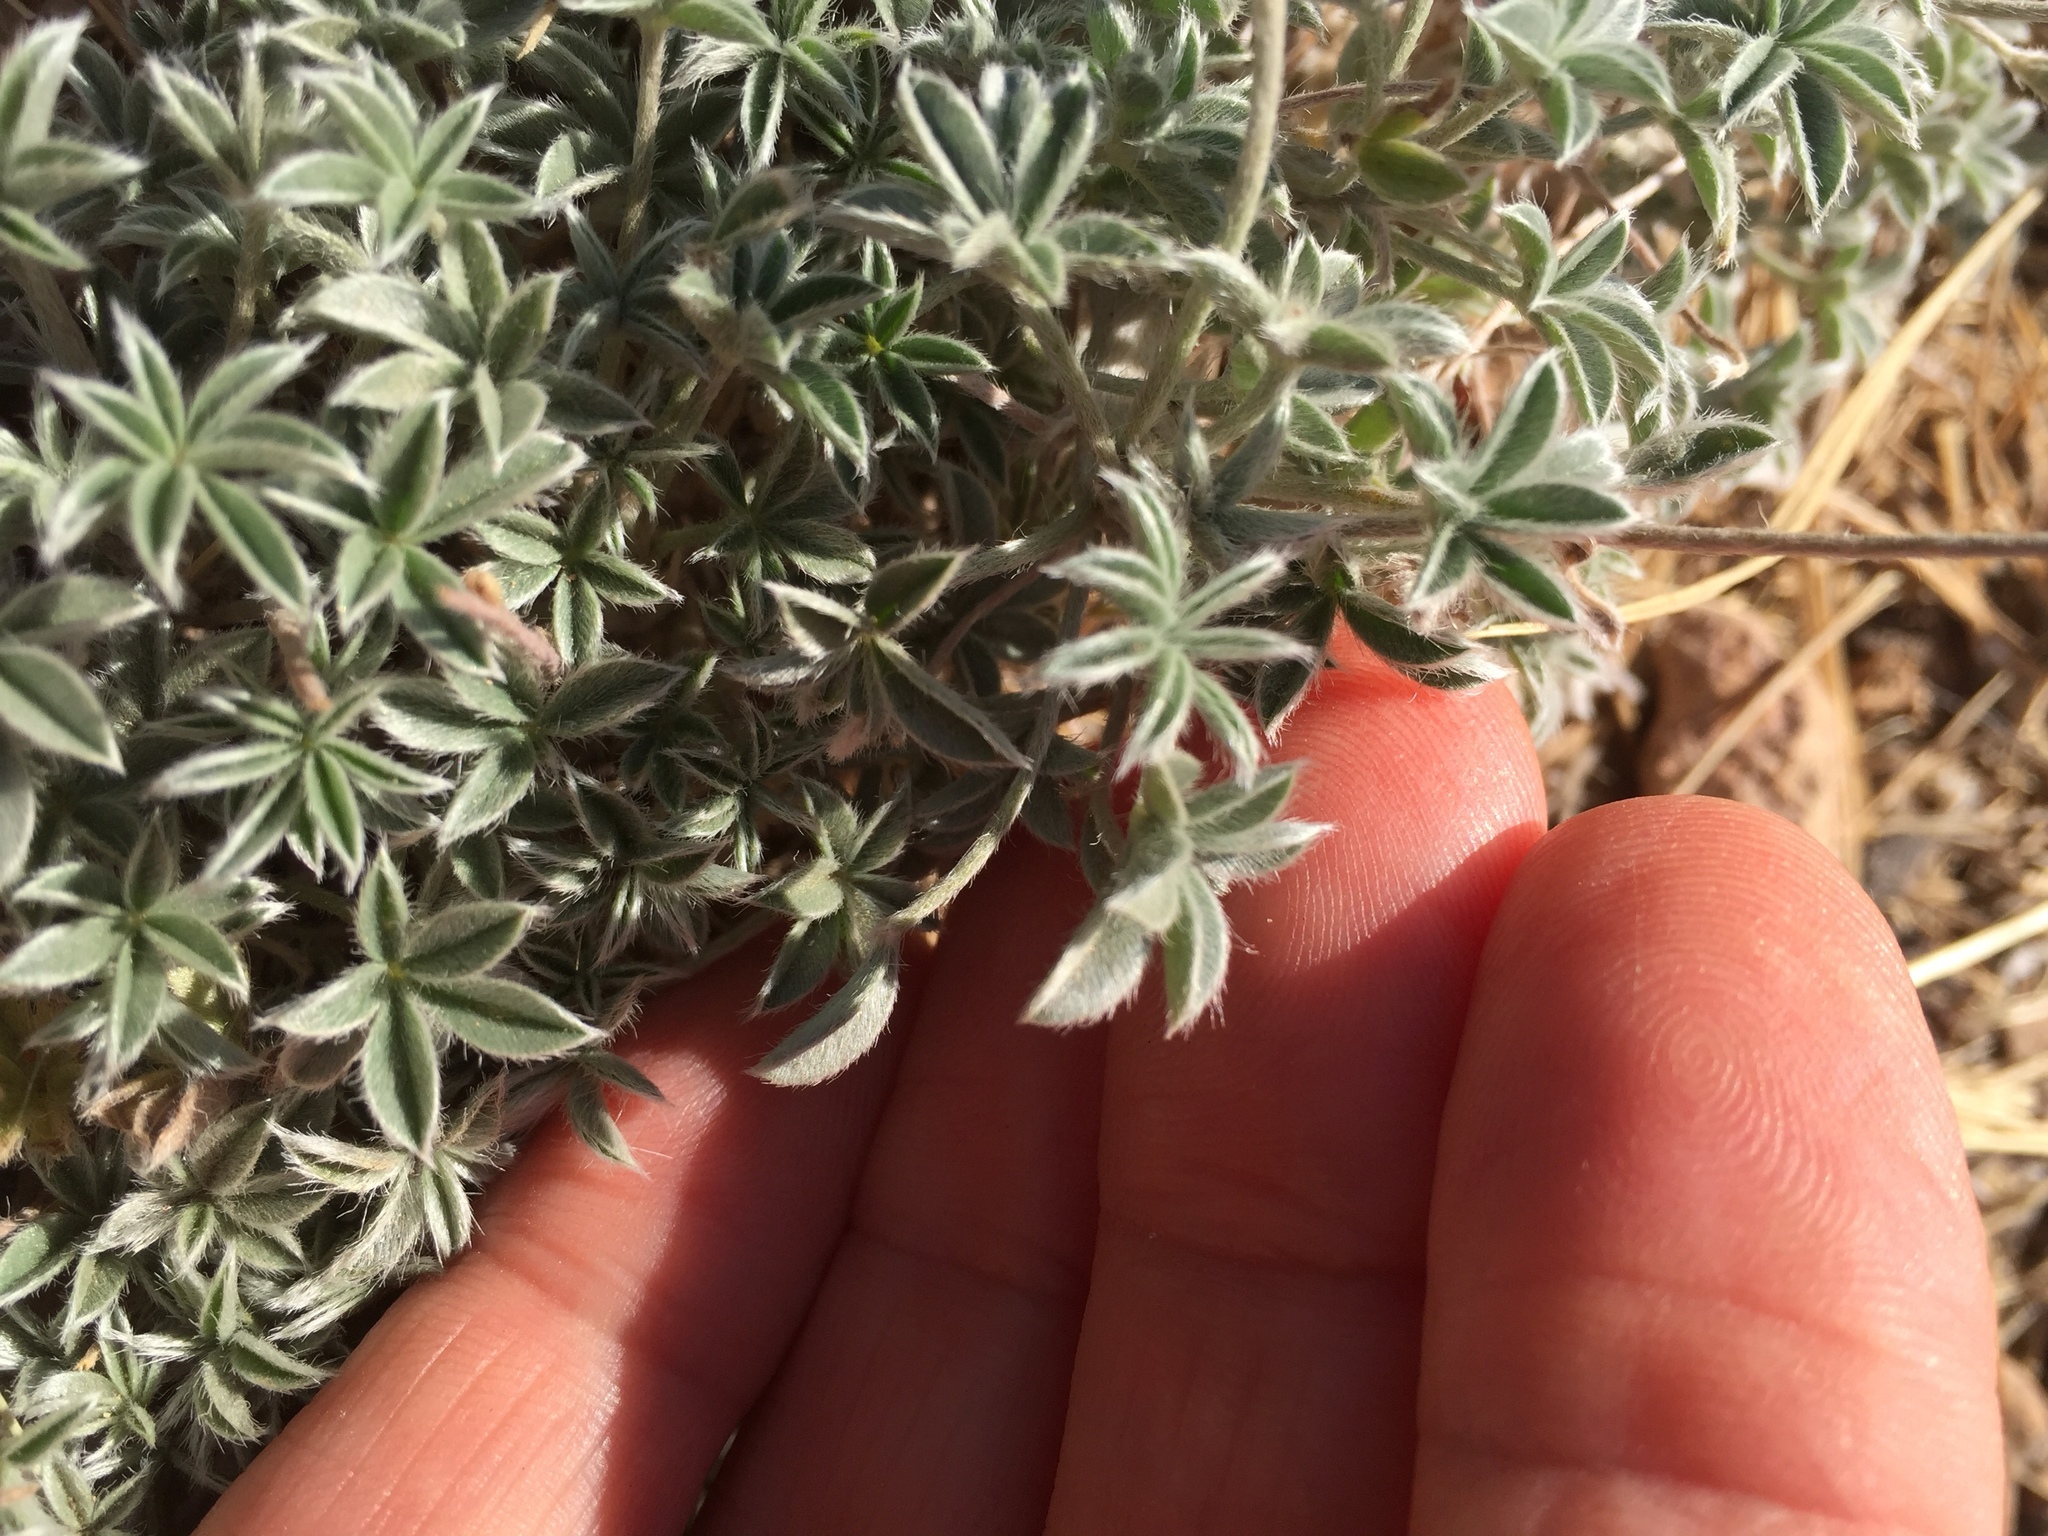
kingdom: Plantae
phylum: Tracheophyta
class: Magnoliopsida
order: Fabales
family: Fabaceae
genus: Lupinus
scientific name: Lupinus lepidus
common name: Prairie lupine
